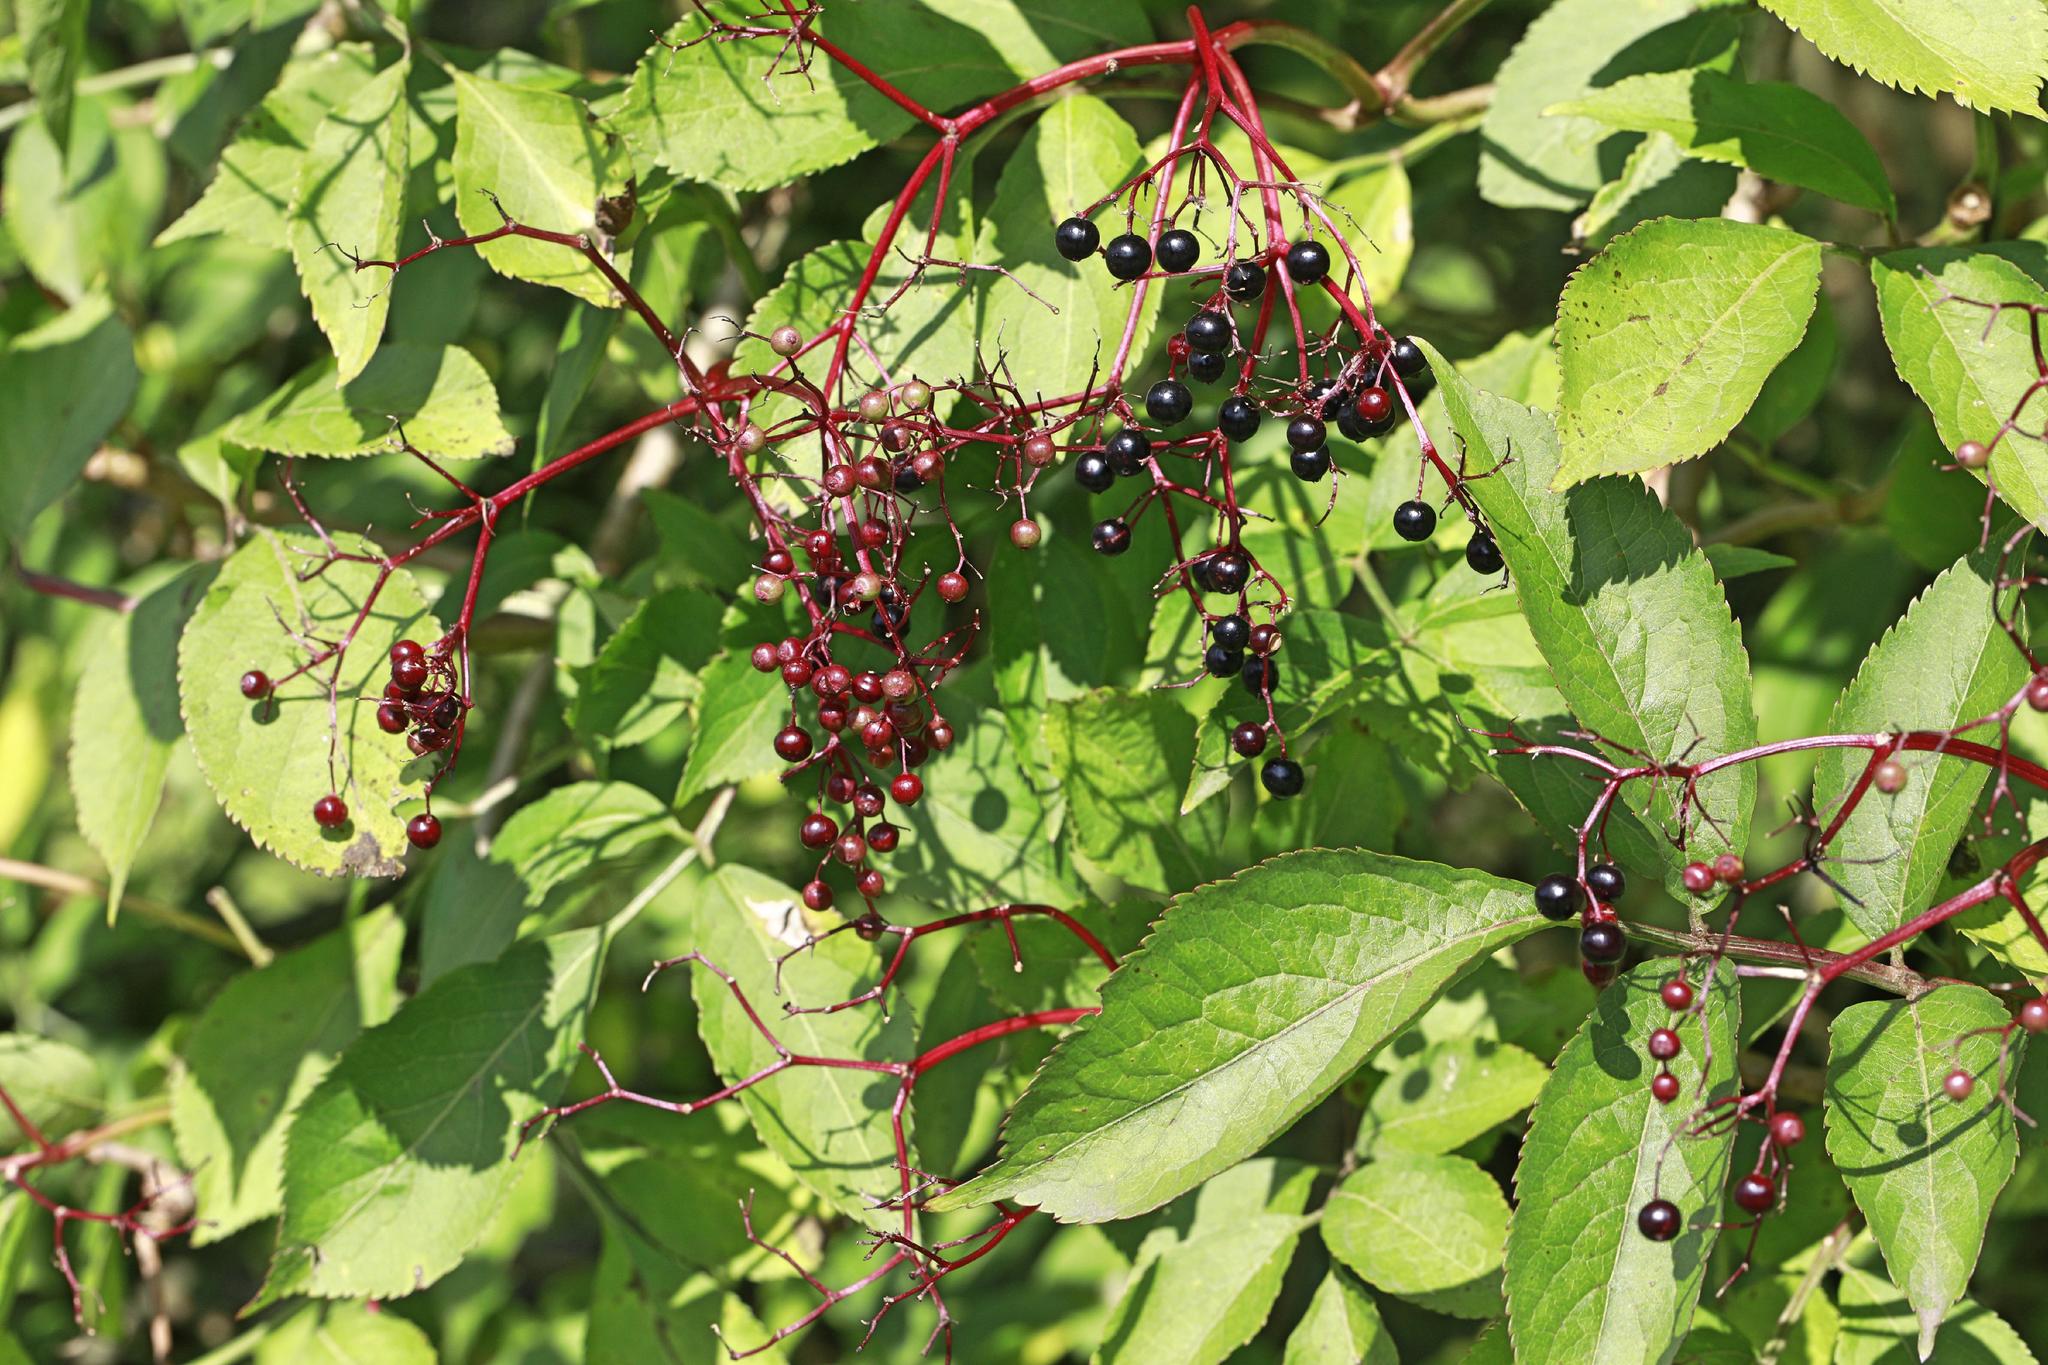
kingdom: Plantae
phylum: Tracheophyta
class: Magnoliopsida
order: Dipsacales
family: Viburnaceae
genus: Sambucus
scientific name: Sambucus nigra
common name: Elder
